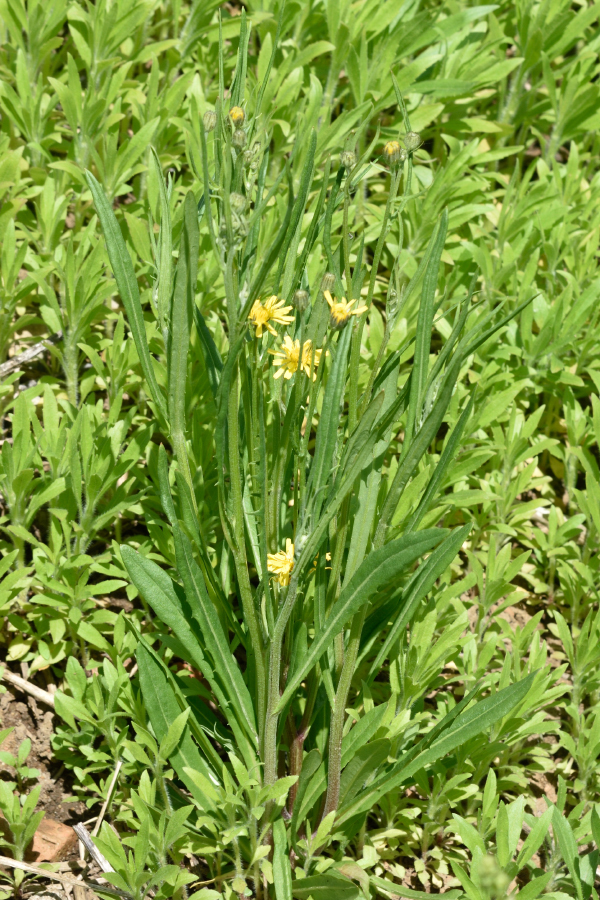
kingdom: Plantae
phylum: Tracheophyta
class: Magnoliopsida
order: Asterales
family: Asteraceae
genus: Crepis
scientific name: Crepis tectorum
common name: Narrow-leaved hawk's-beard
